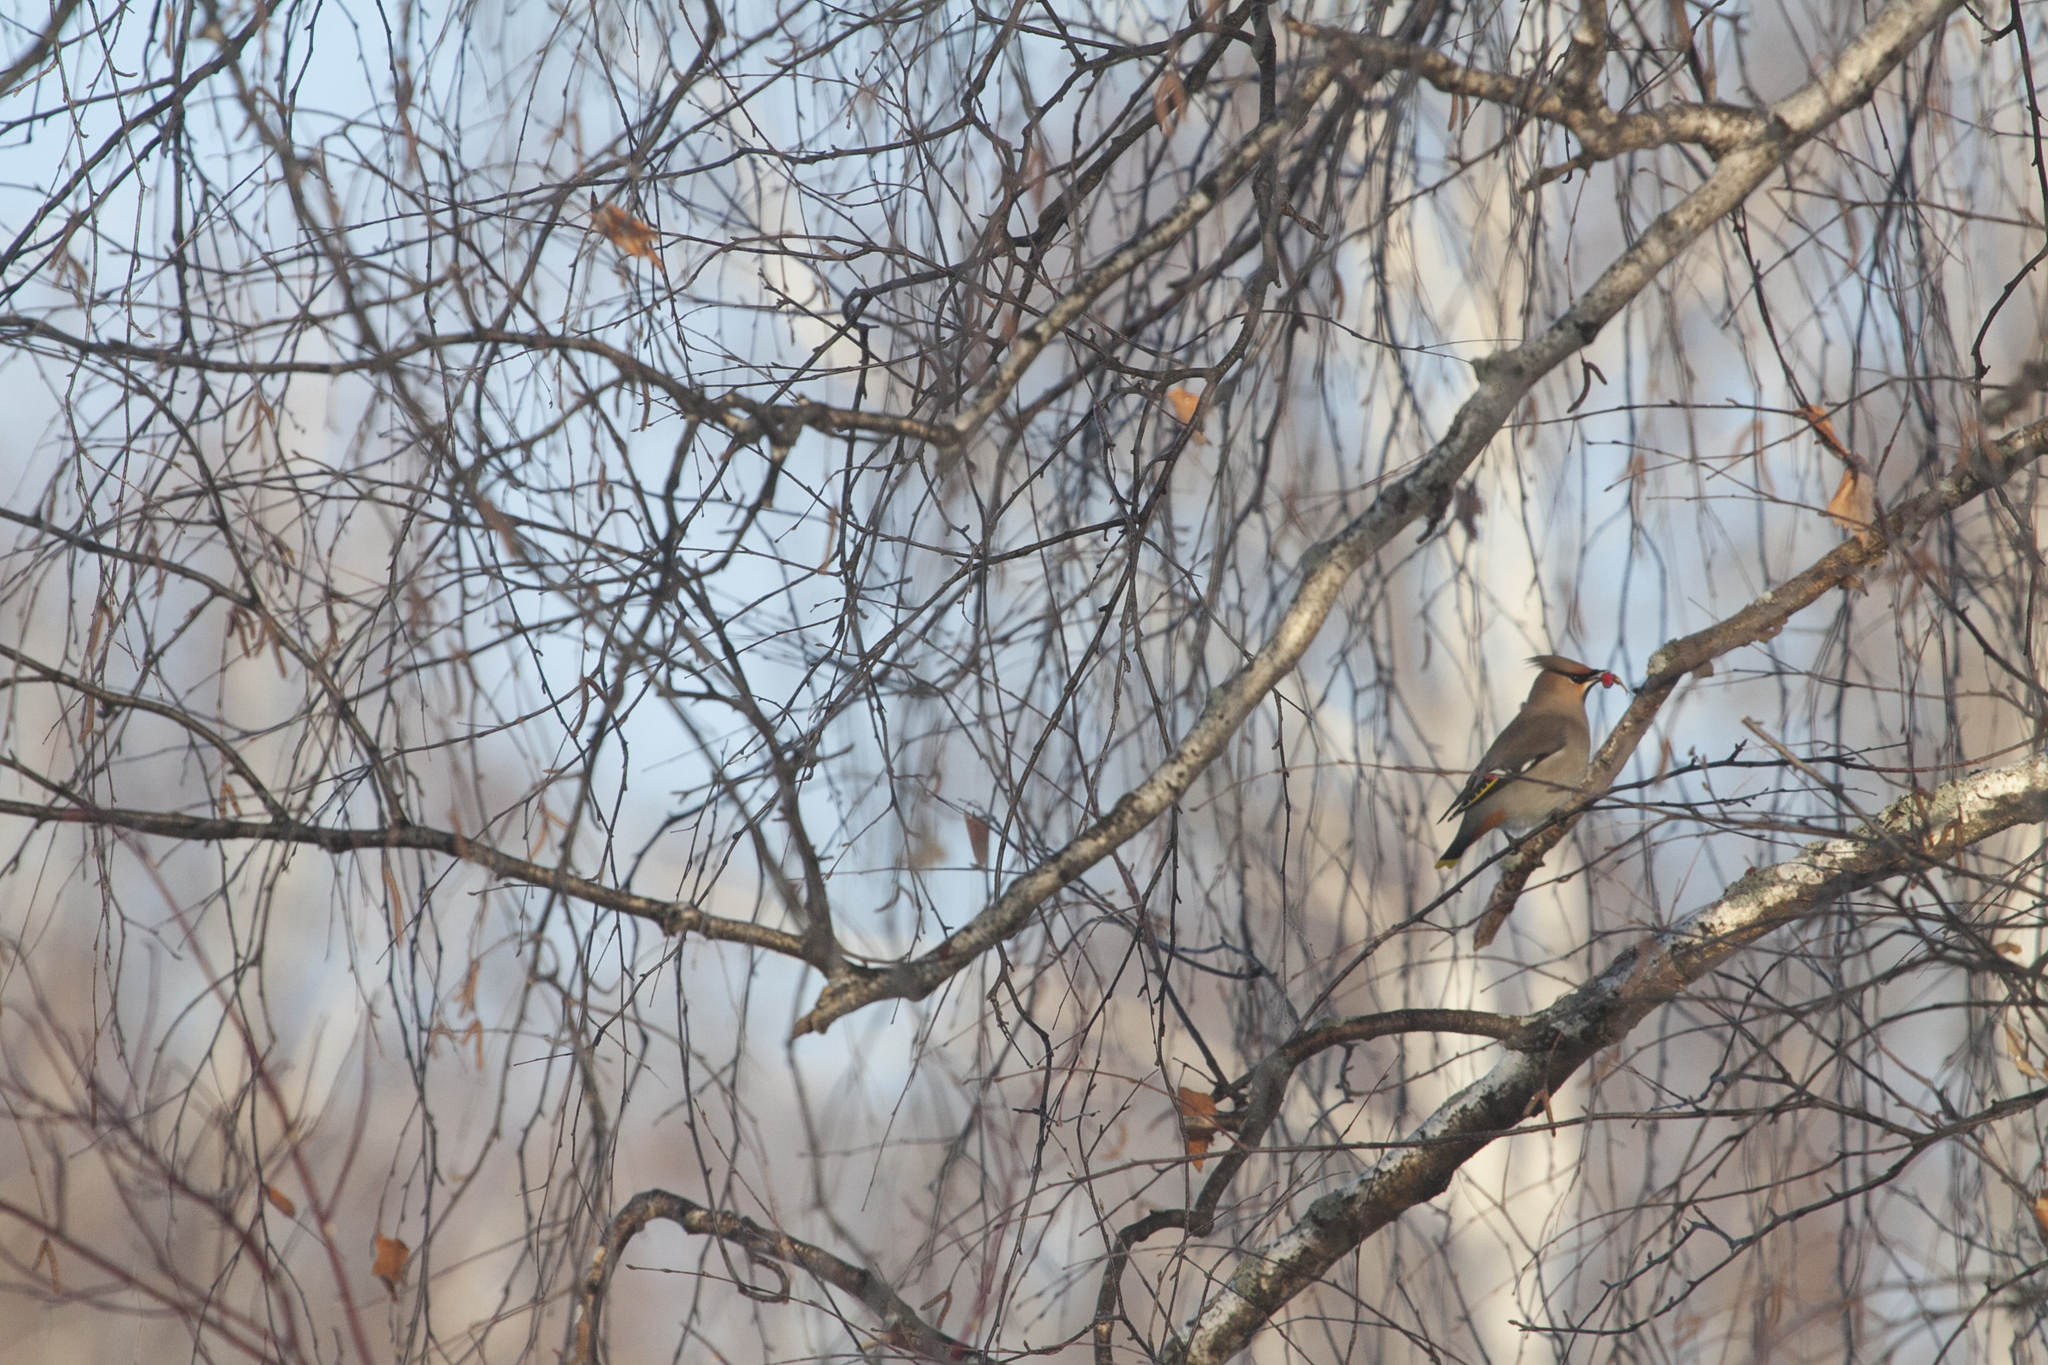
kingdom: Animalia
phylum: Chordata
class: Aves
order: Passeriformes
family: Bombycillidae
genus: Bombycilla
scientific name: Bombycilla garrulus
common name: Bohemian waxwing
